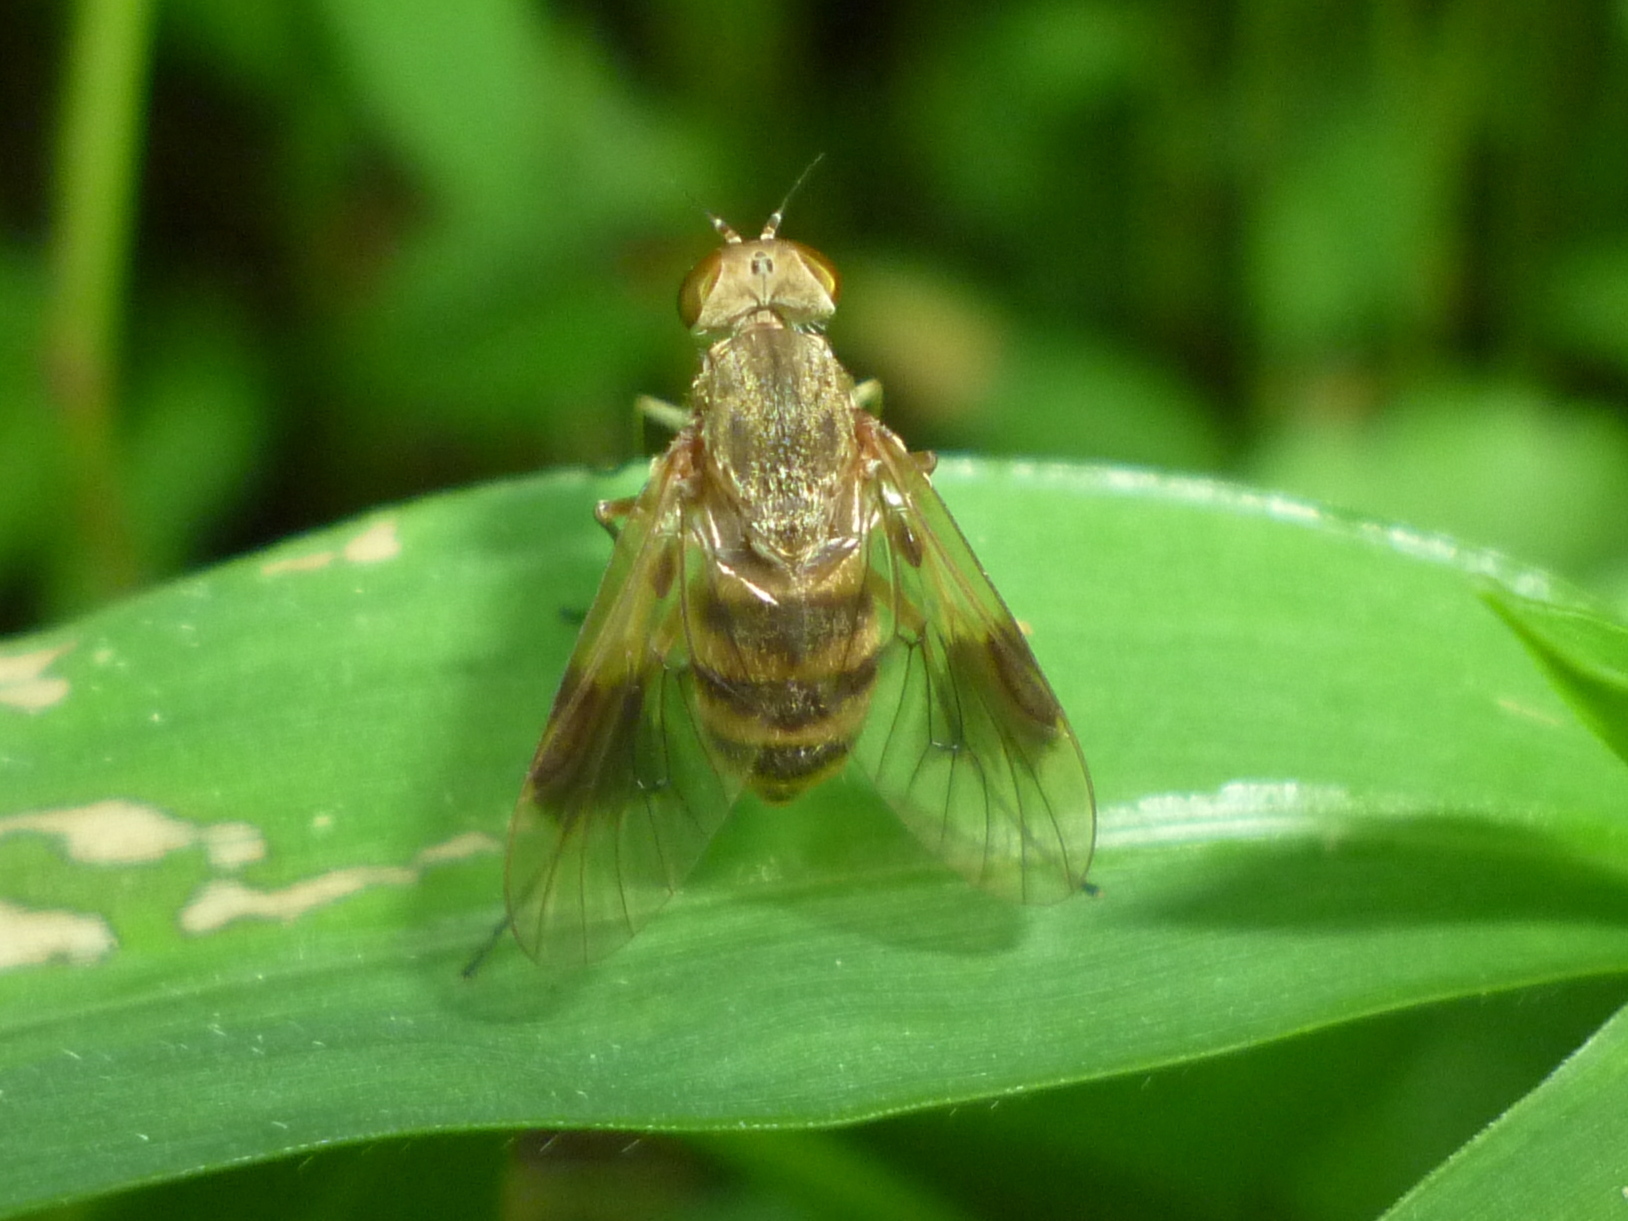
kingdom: Animalia
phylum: Arthropoda
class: Insecta
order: Diptera
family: Rhagionidae
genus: Chrysopilus
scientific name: Chrysopilus quadratus
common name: Quadrate snipe fly
